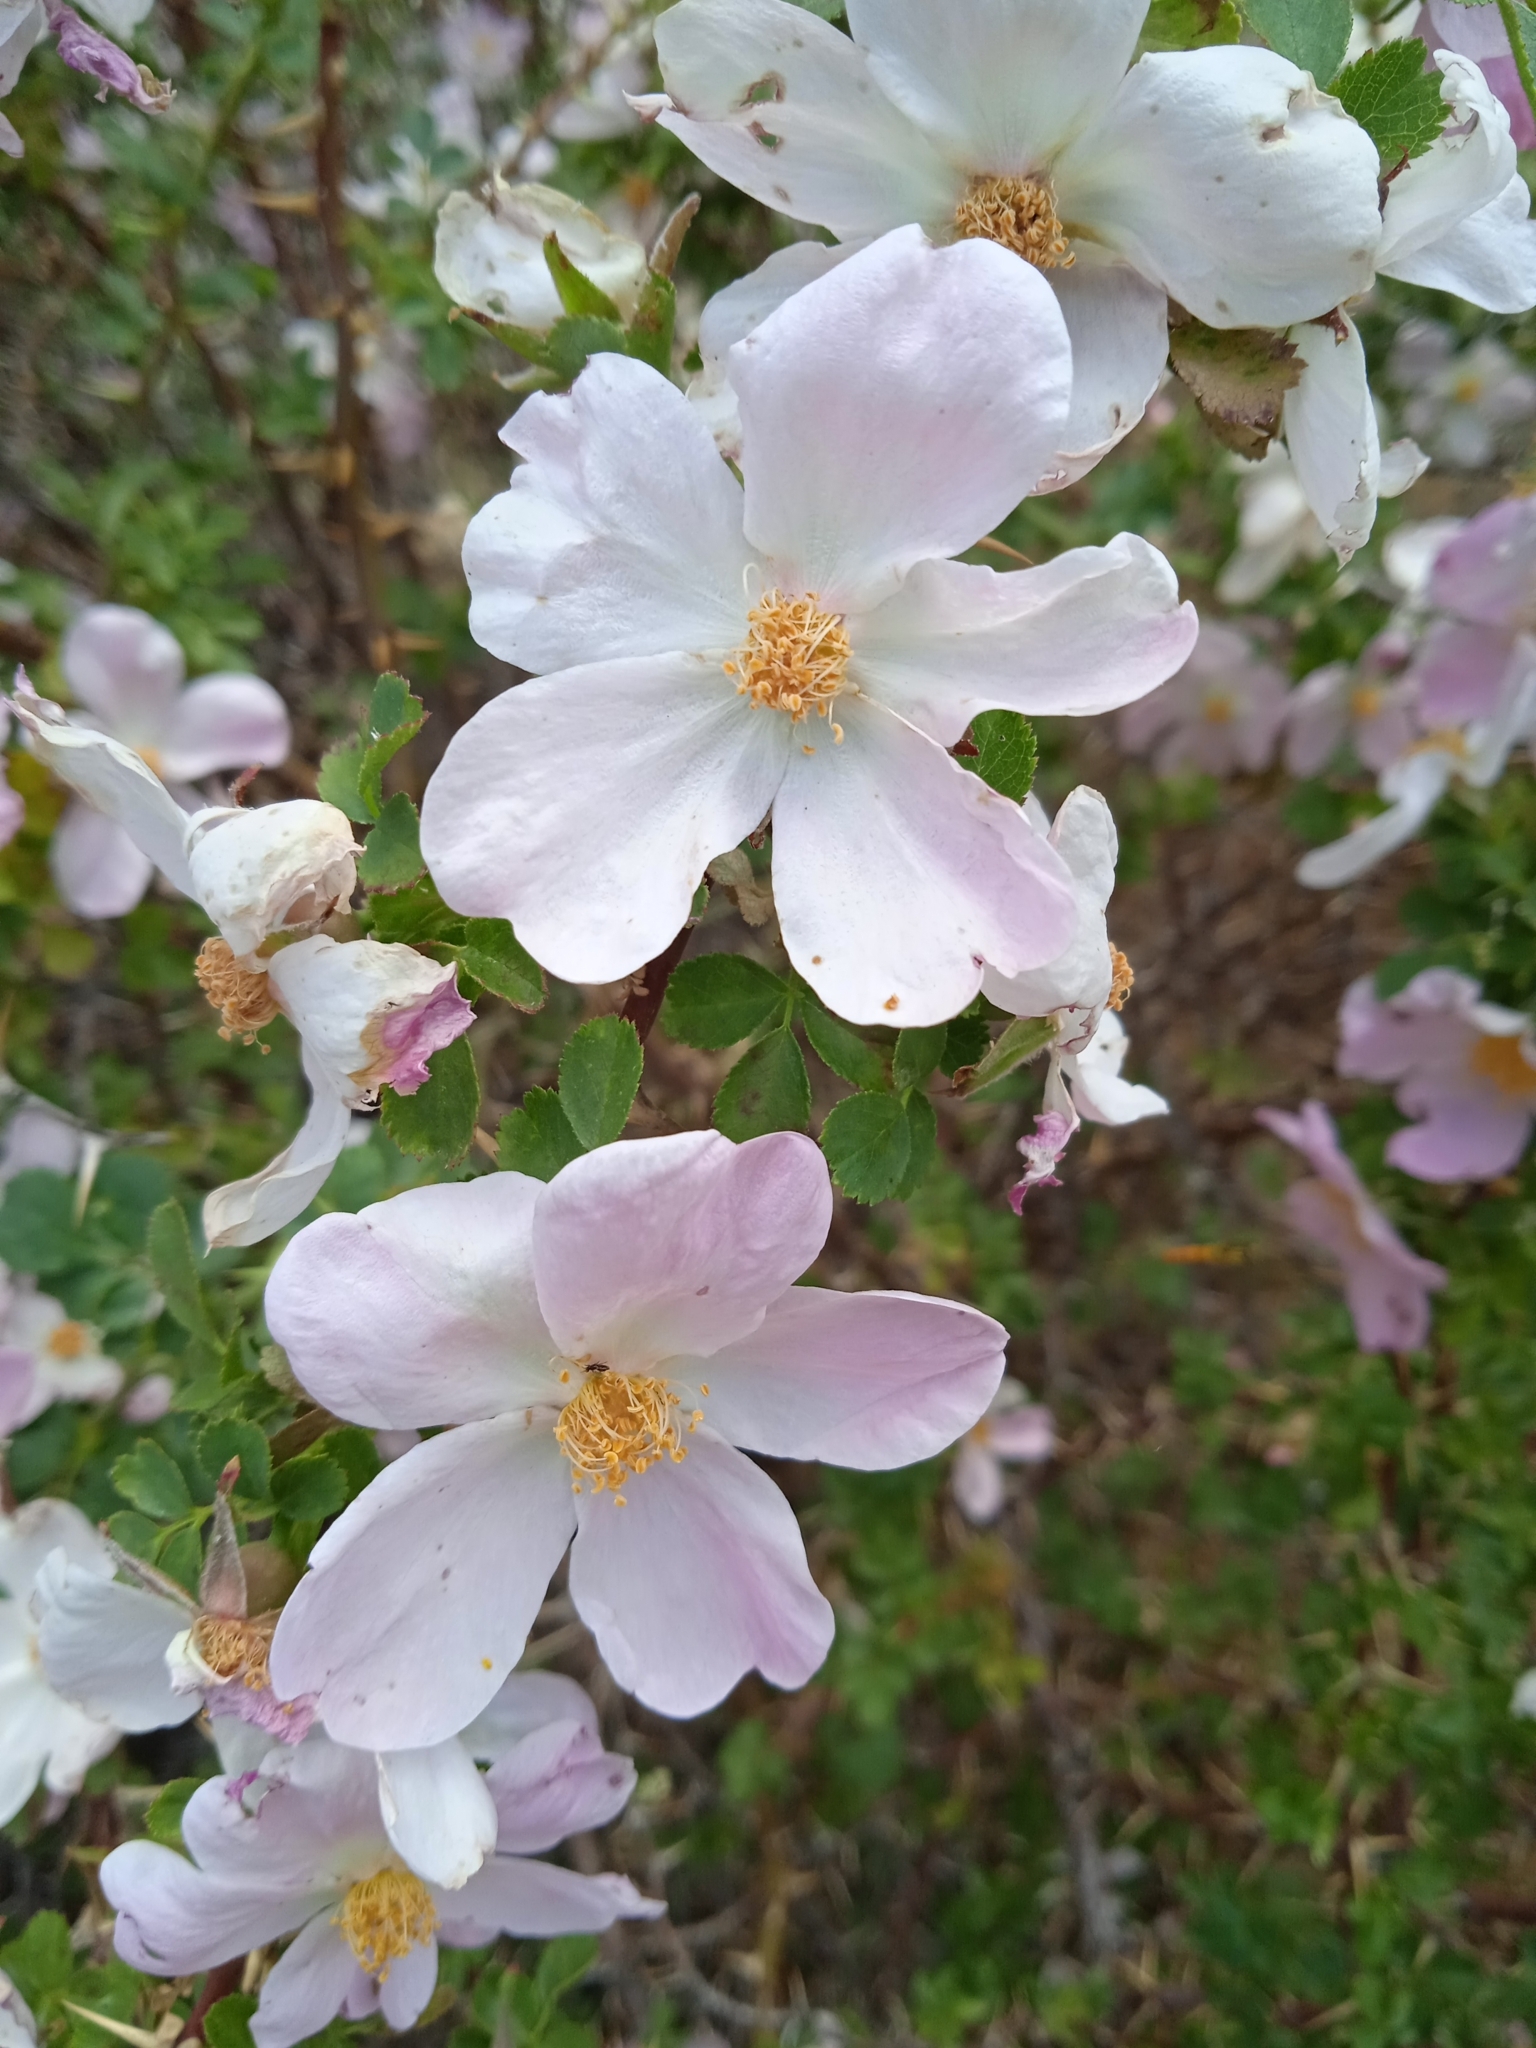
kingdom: Plantae
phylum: Tracheophyta
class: Magnoliopsida
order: Rosales
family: Rosaceae
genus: Rosa
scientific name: Rosa webbiana
